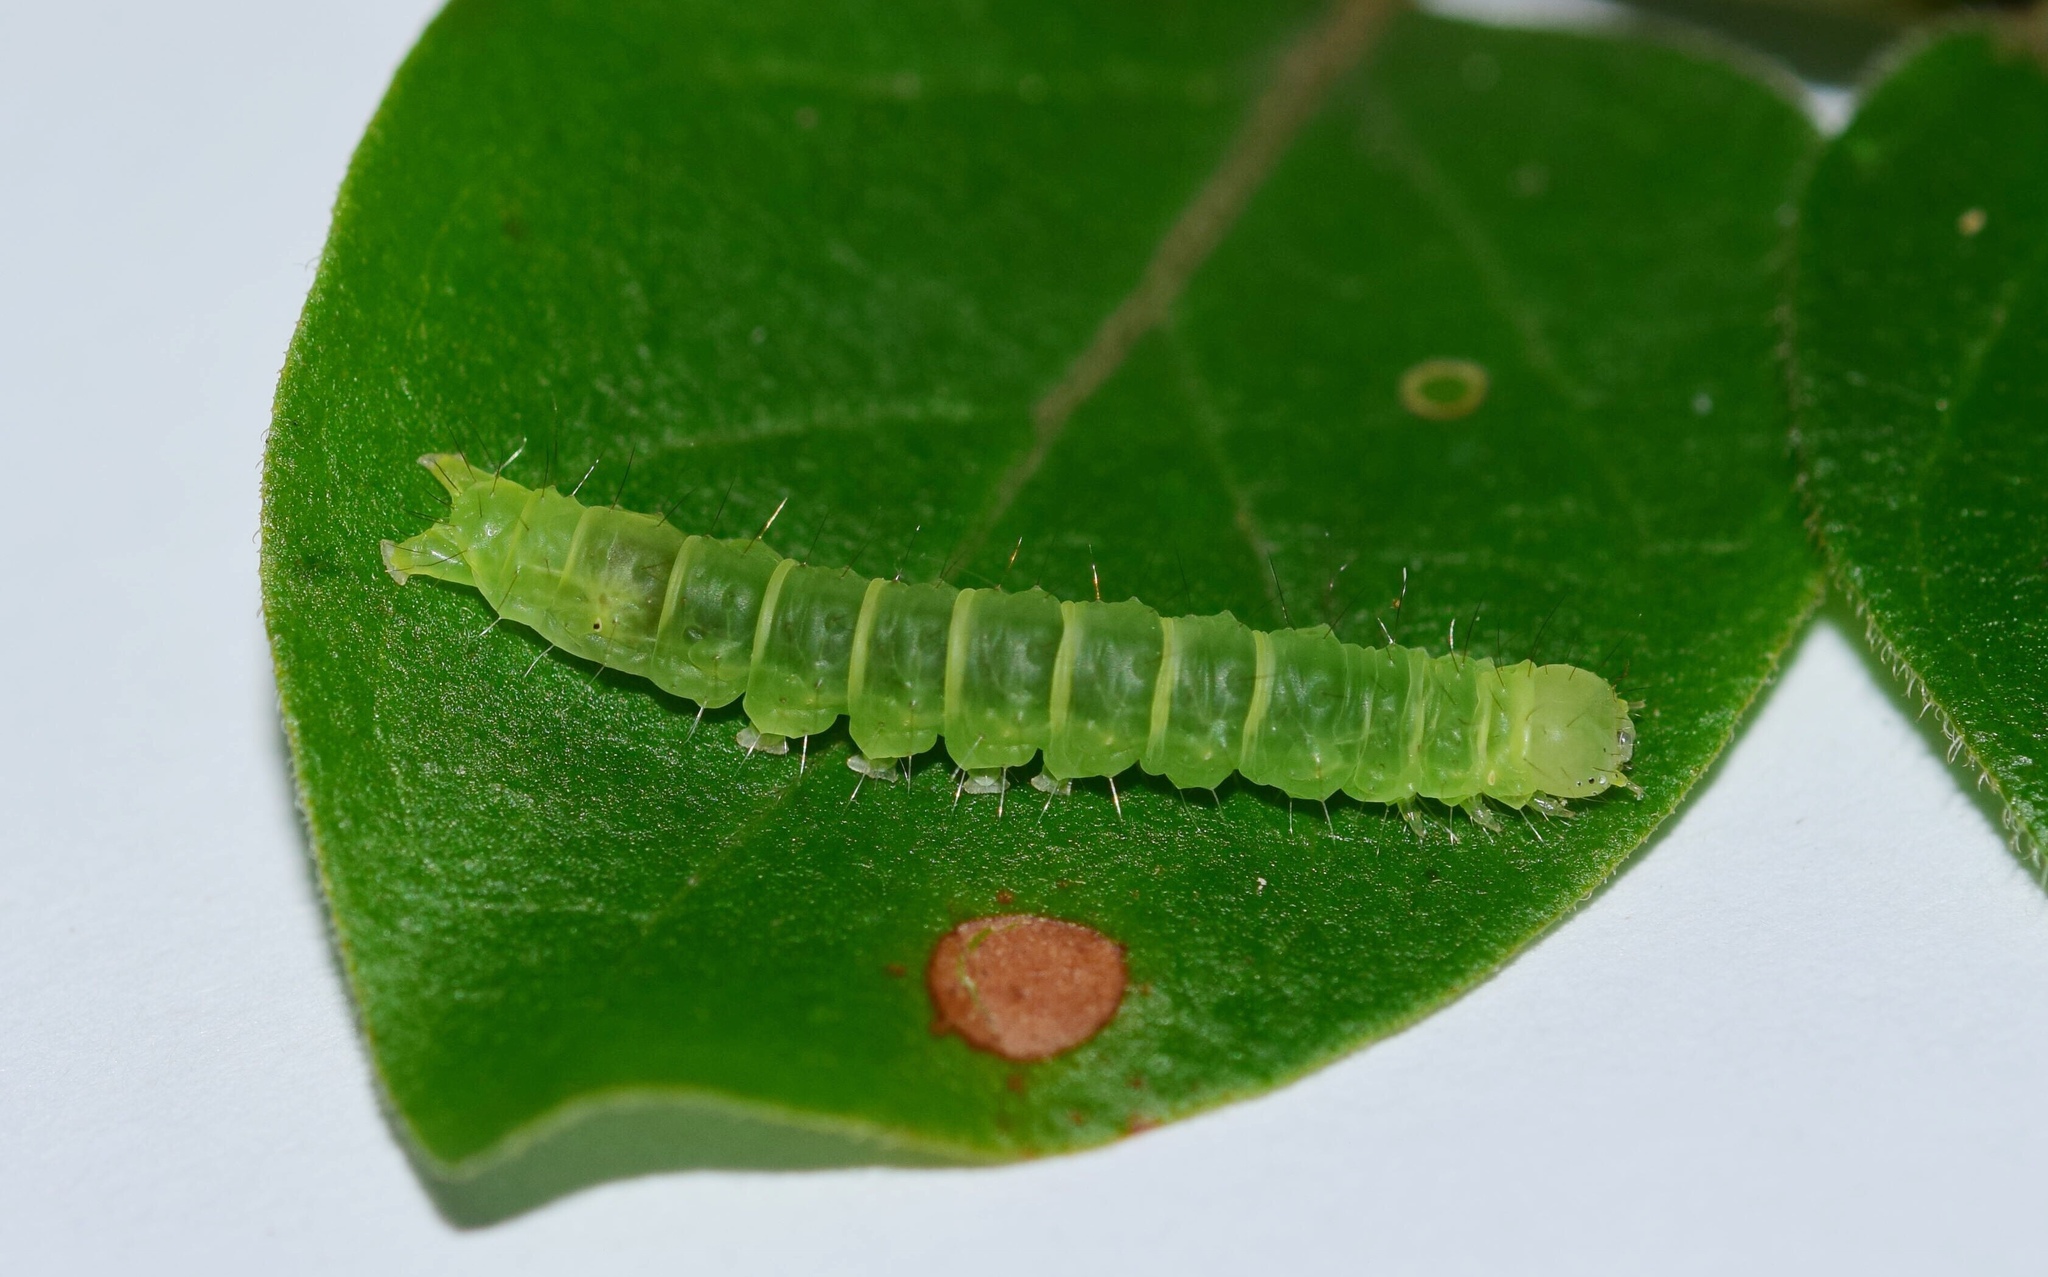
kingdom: Animalia
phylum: Arthropoda
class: Insecta
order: Lepidoptera
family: Erebidae
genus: Gracilodes
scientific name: Gracilodes caffra
